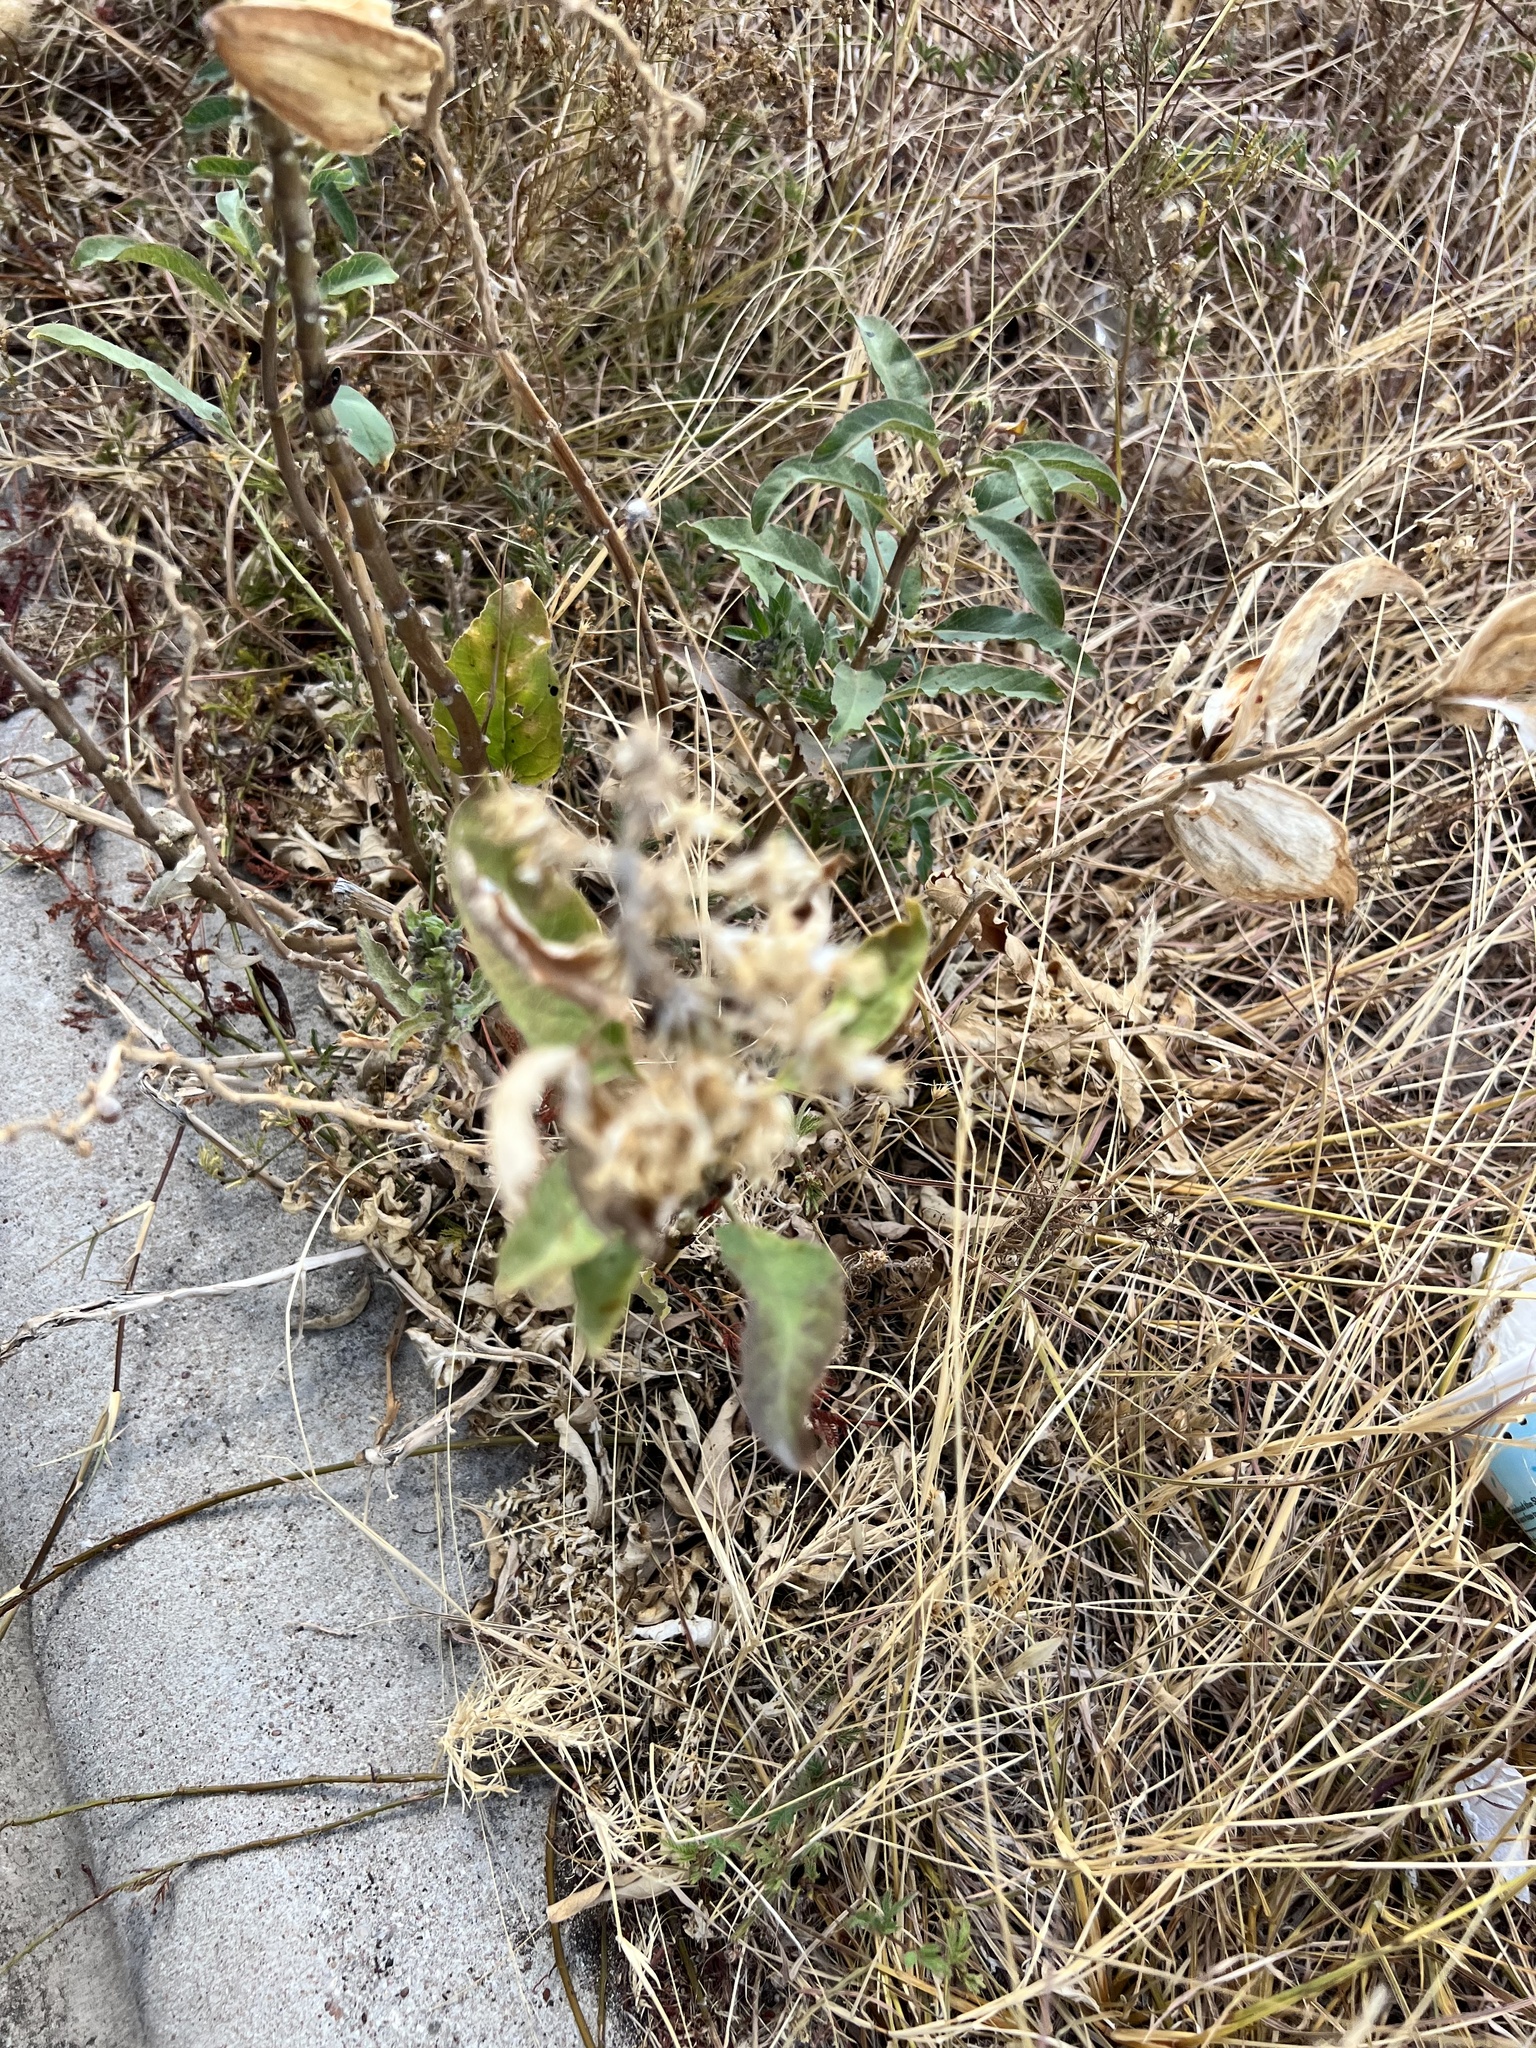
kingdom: Plantae
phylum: Tracheophyta
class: Magnoliopsida
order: Gentianales
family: Apocynaceae
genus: Asclepias
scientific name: Asclepias oenotheroides
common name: Zizotes milkweed
